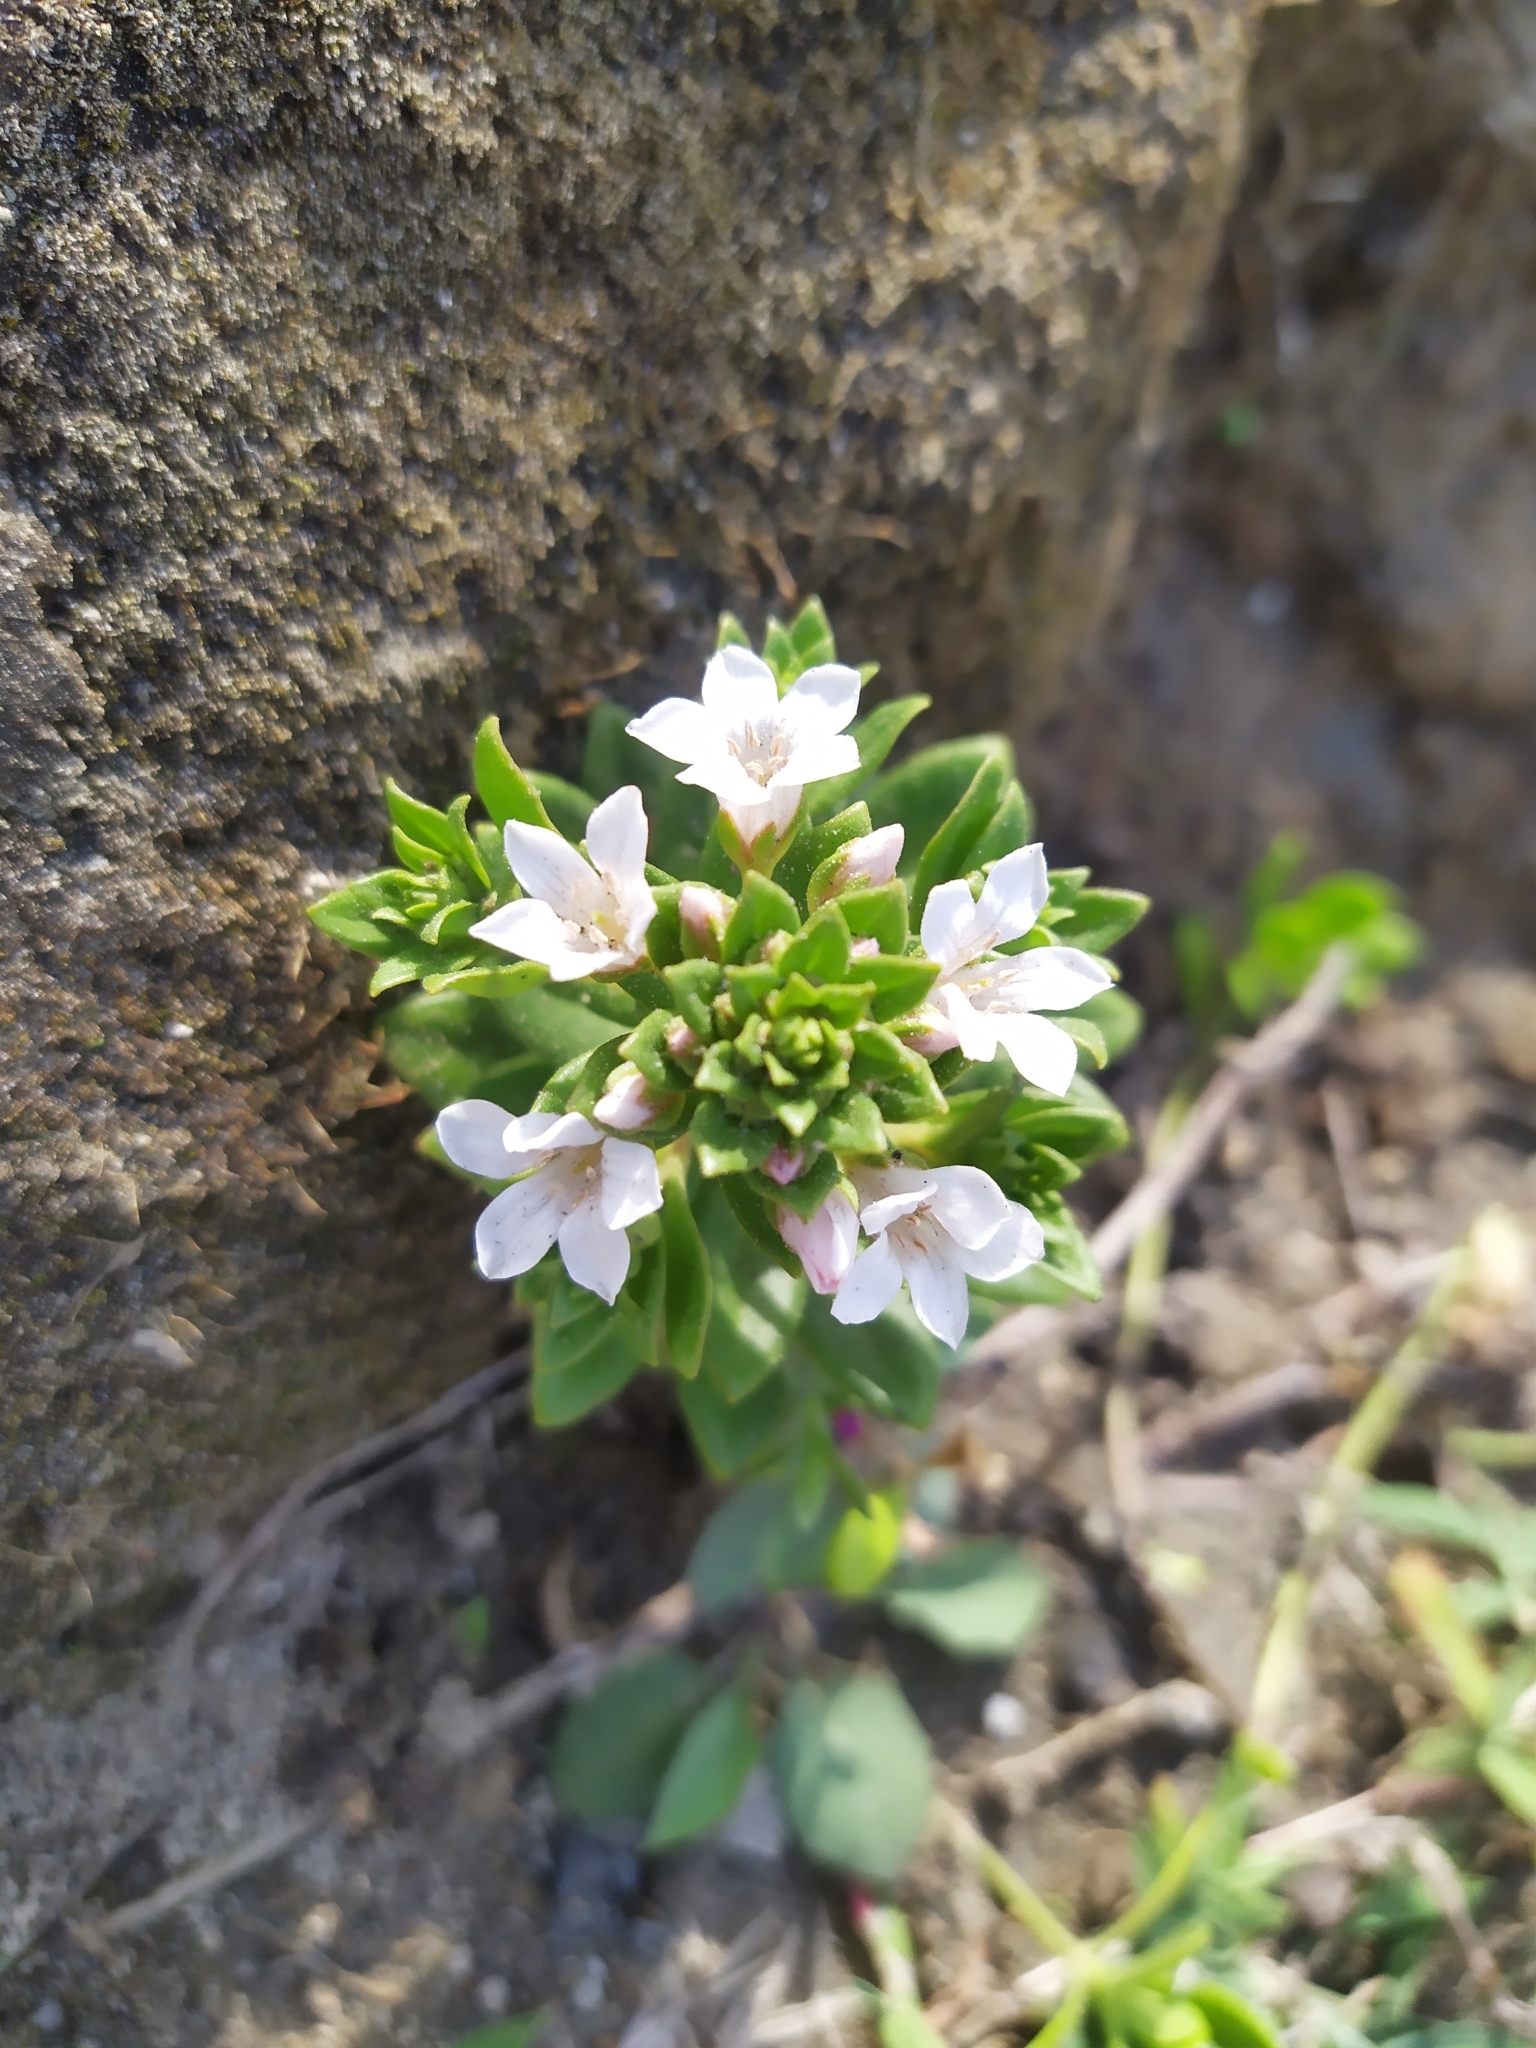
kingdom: Plantae
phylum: Tracheophyta
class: Magnoliopsida
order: Ericales
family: Primulaceae
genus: Lysimachia
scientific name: Lysimachia mauritiana
